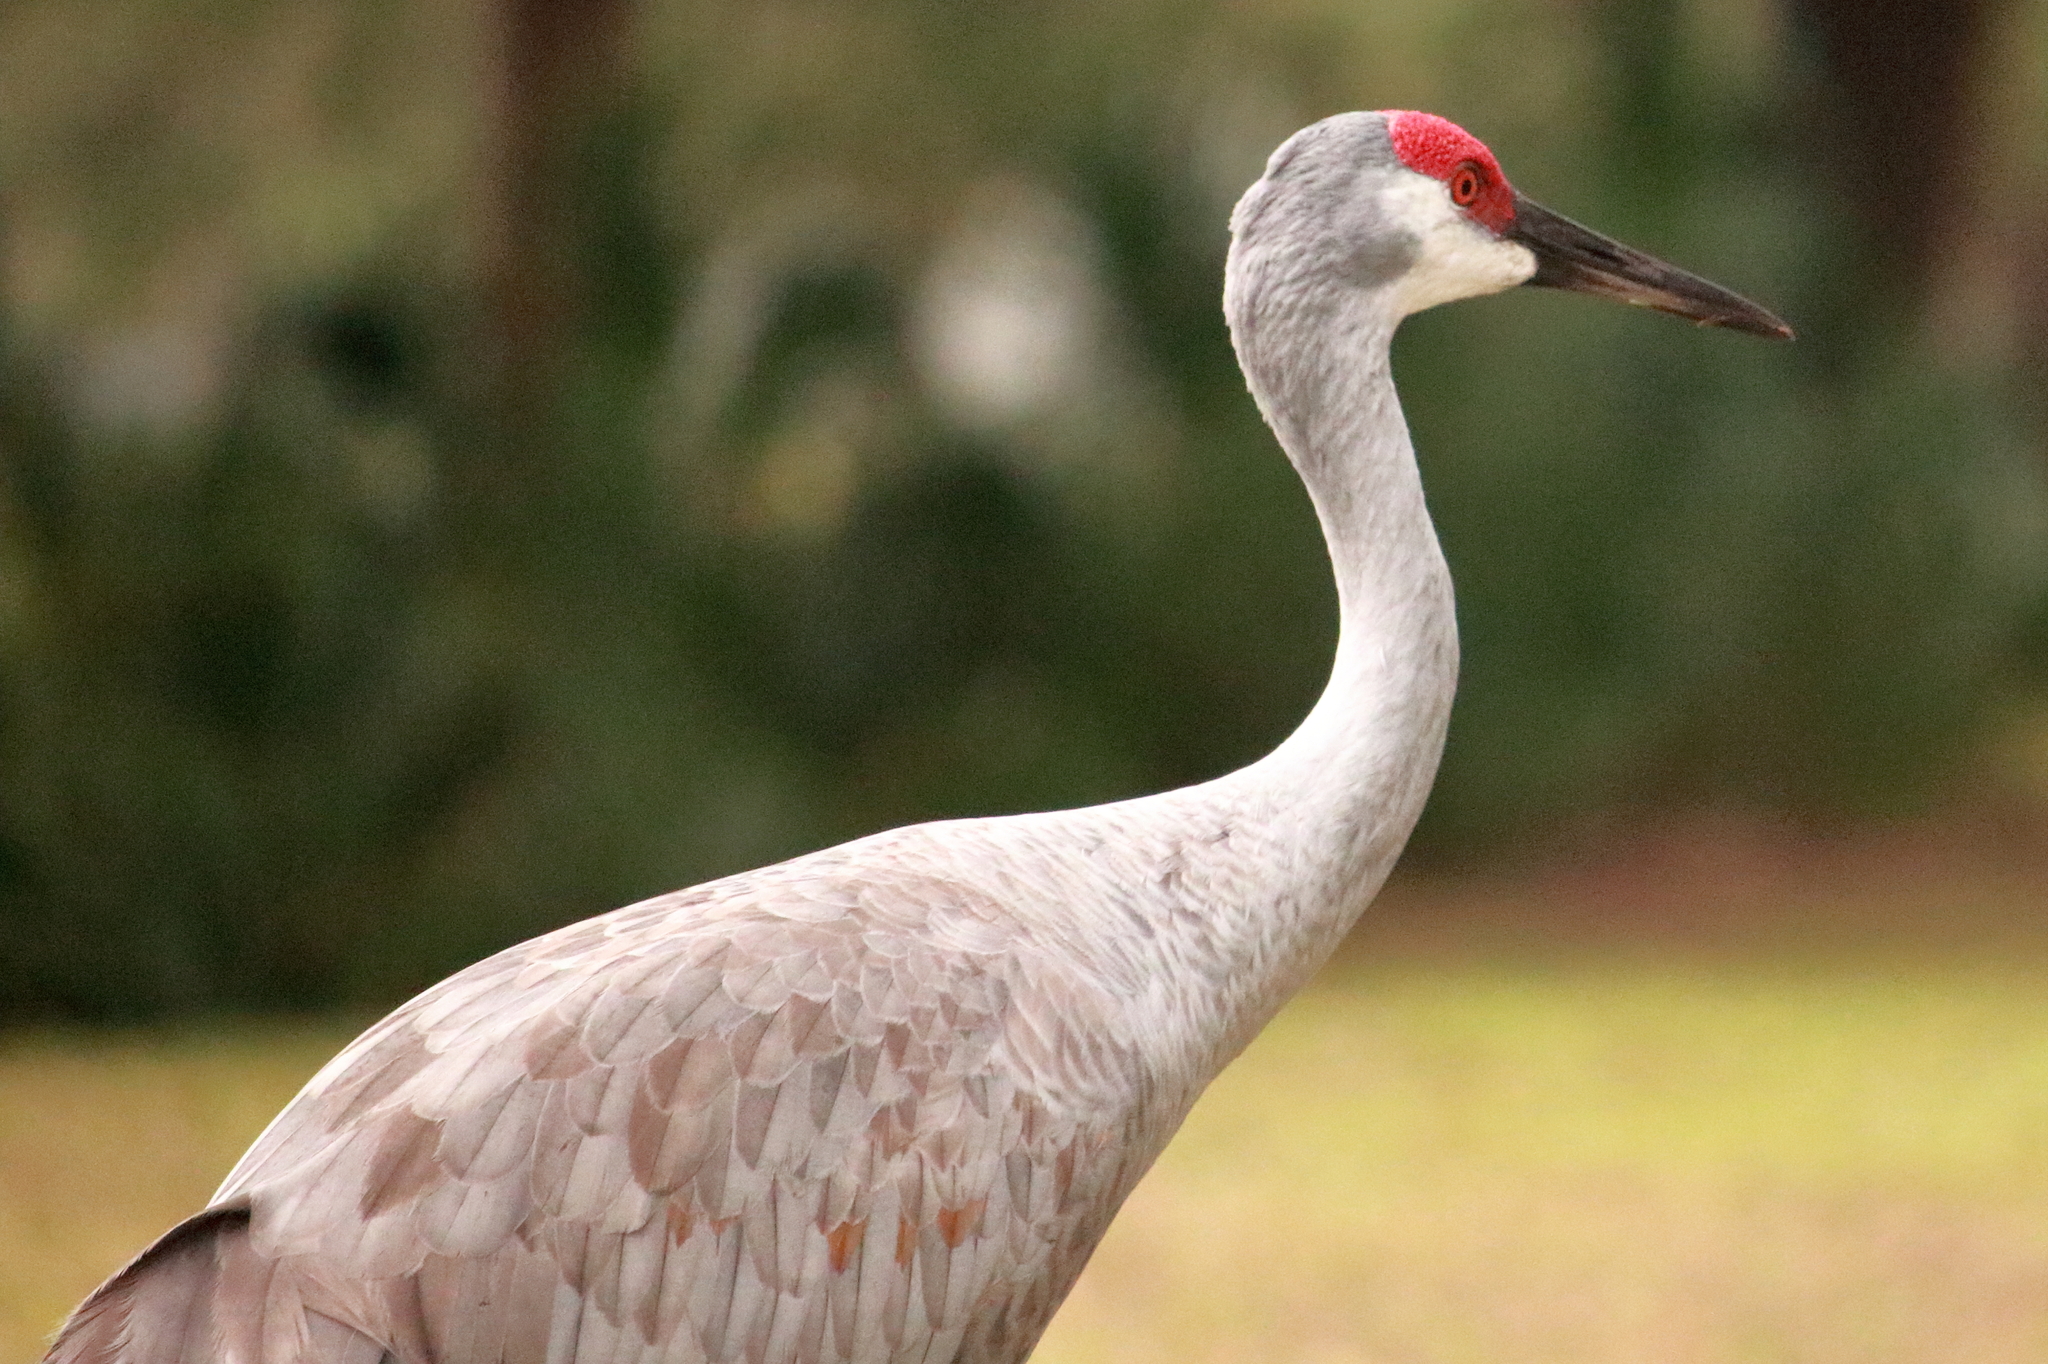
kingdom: Animalia
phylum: Chordata
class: Aves
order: Gruiformes
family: Gruidae
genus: Grus
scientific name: Grus canadensis
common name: Sandhill crane
